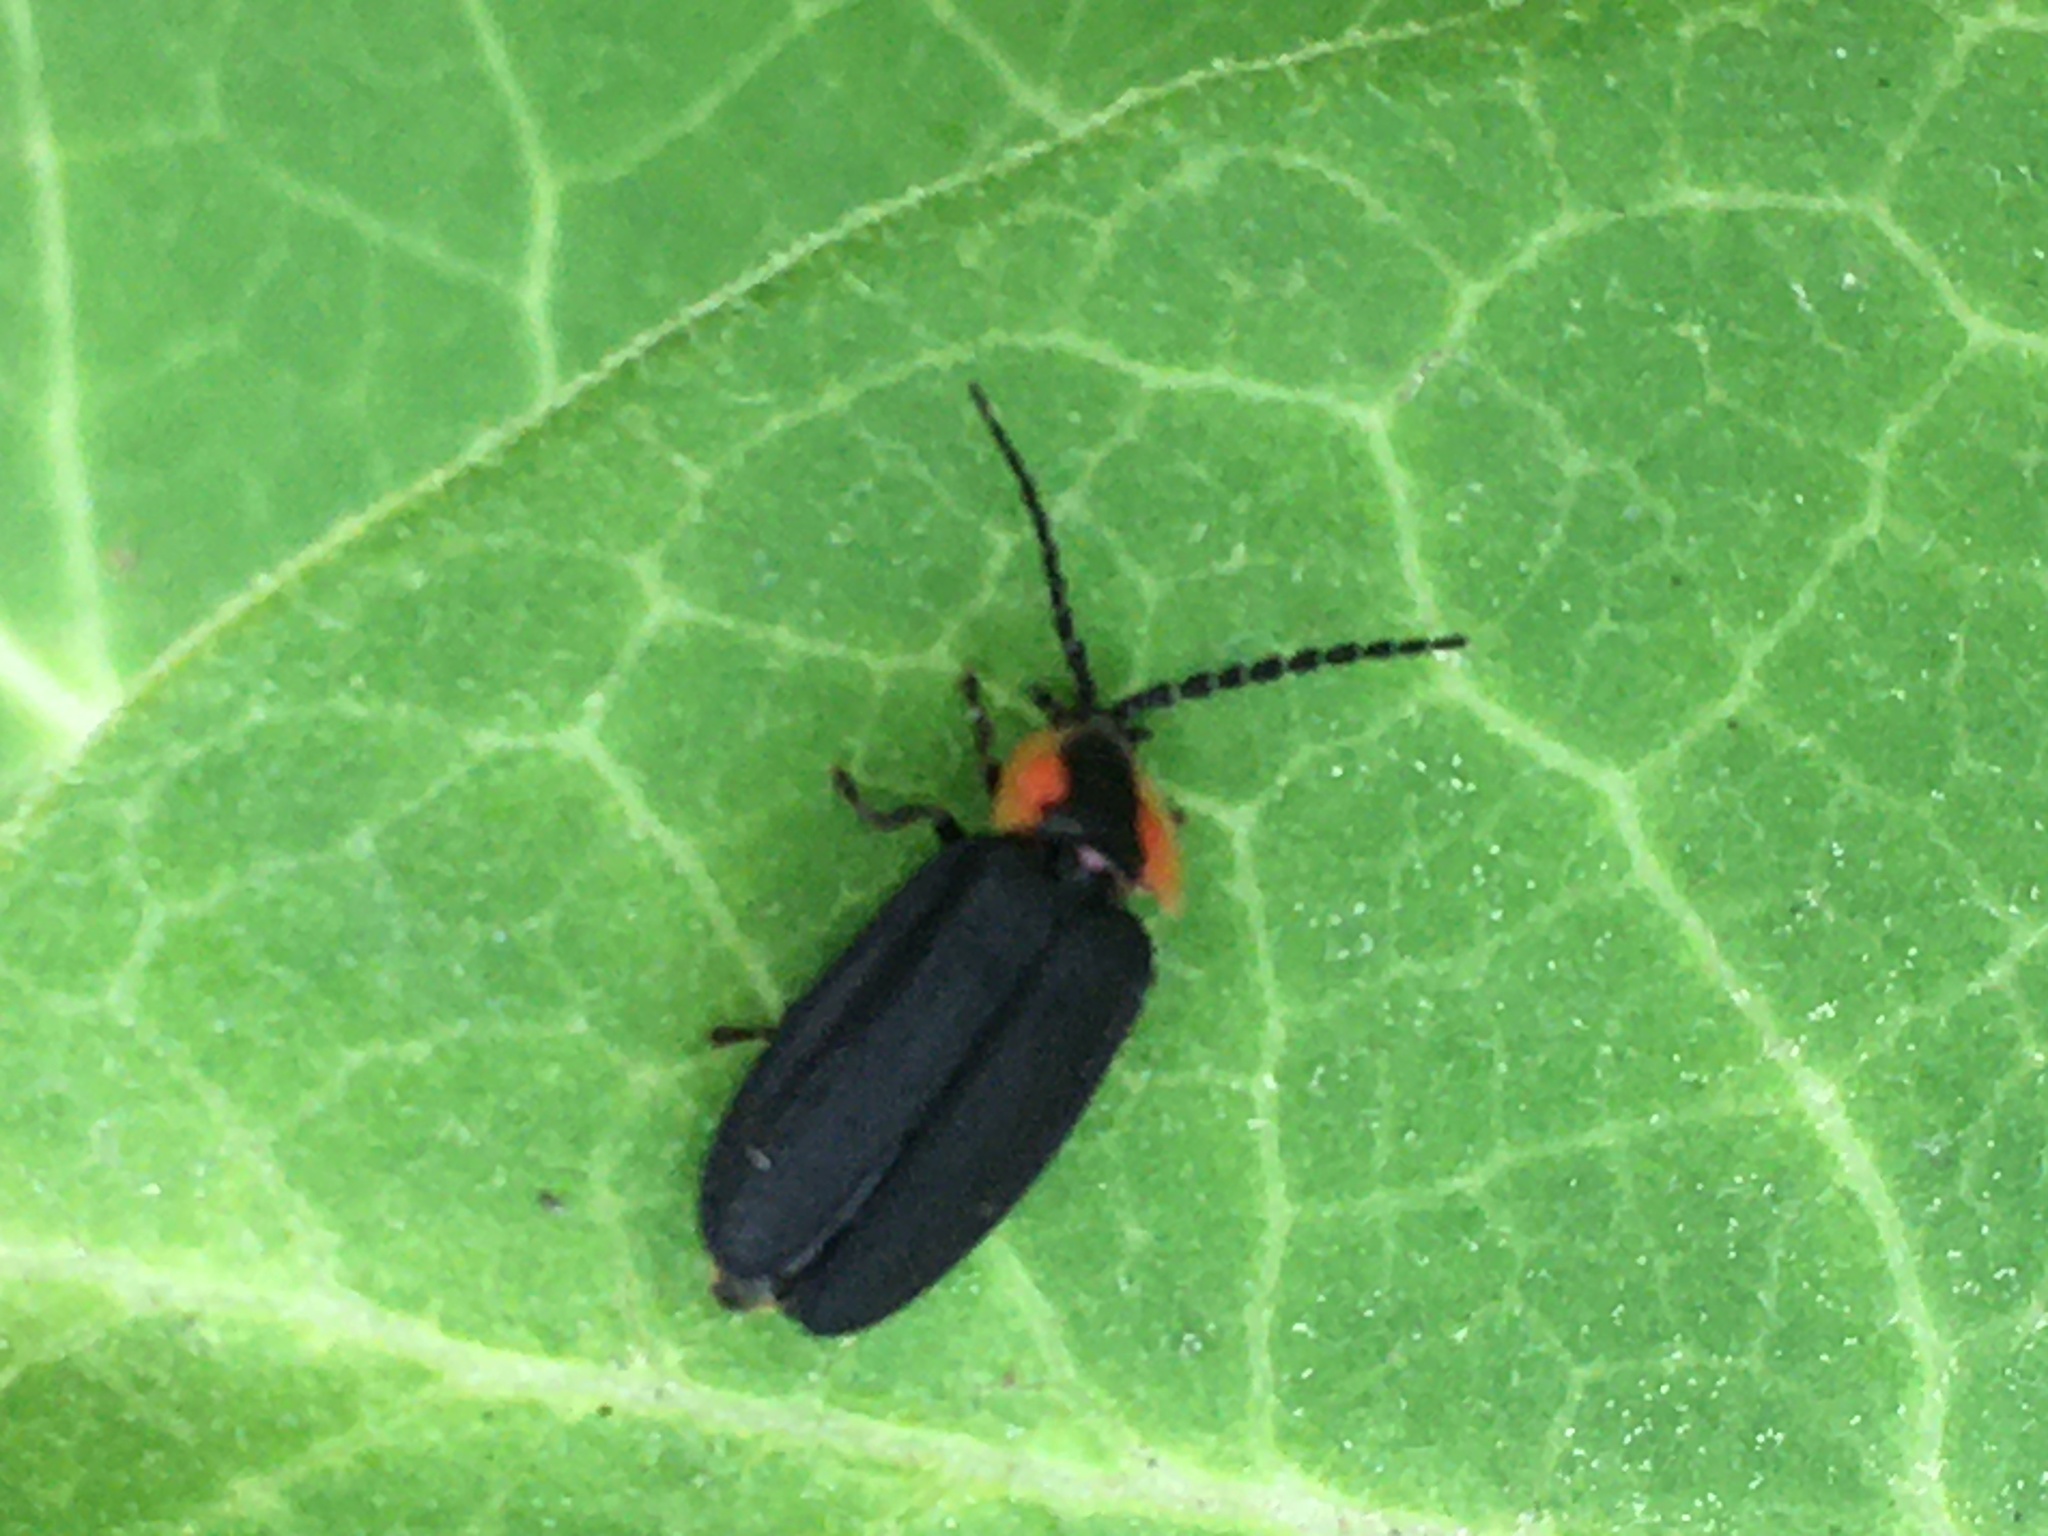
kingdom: Animalia
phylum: Arthropoda
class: Insecta
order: Coleoptera
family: Lampyridae
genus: Lucidota
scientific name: Lucidota atra
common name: Black firefly
